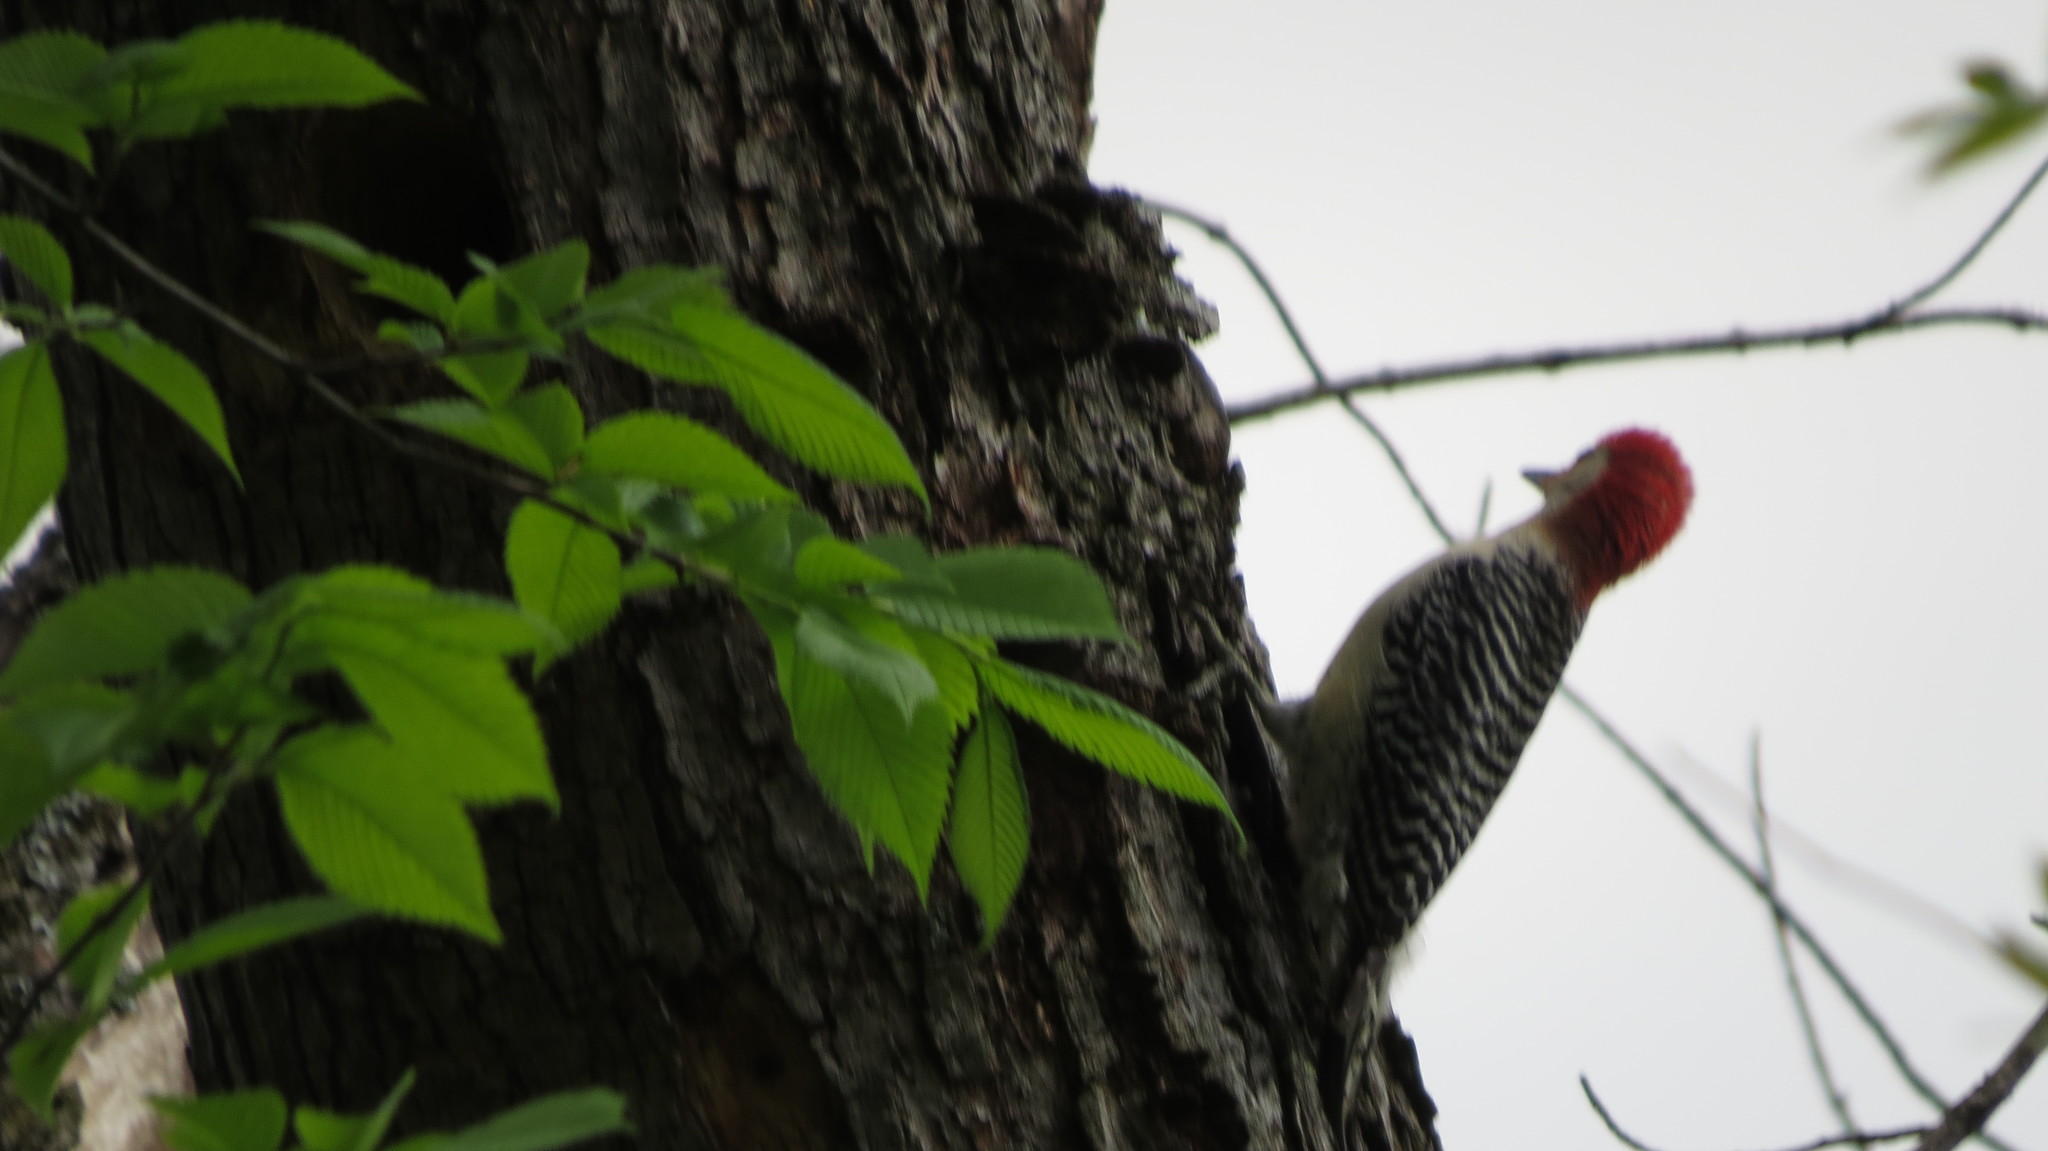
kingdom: Animalia
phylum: Chordata
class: Aves
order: Piciformes
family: Picidae
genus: Melanerpes
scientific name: Melanerpes carolinus
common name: Red-bellied woodpecker
